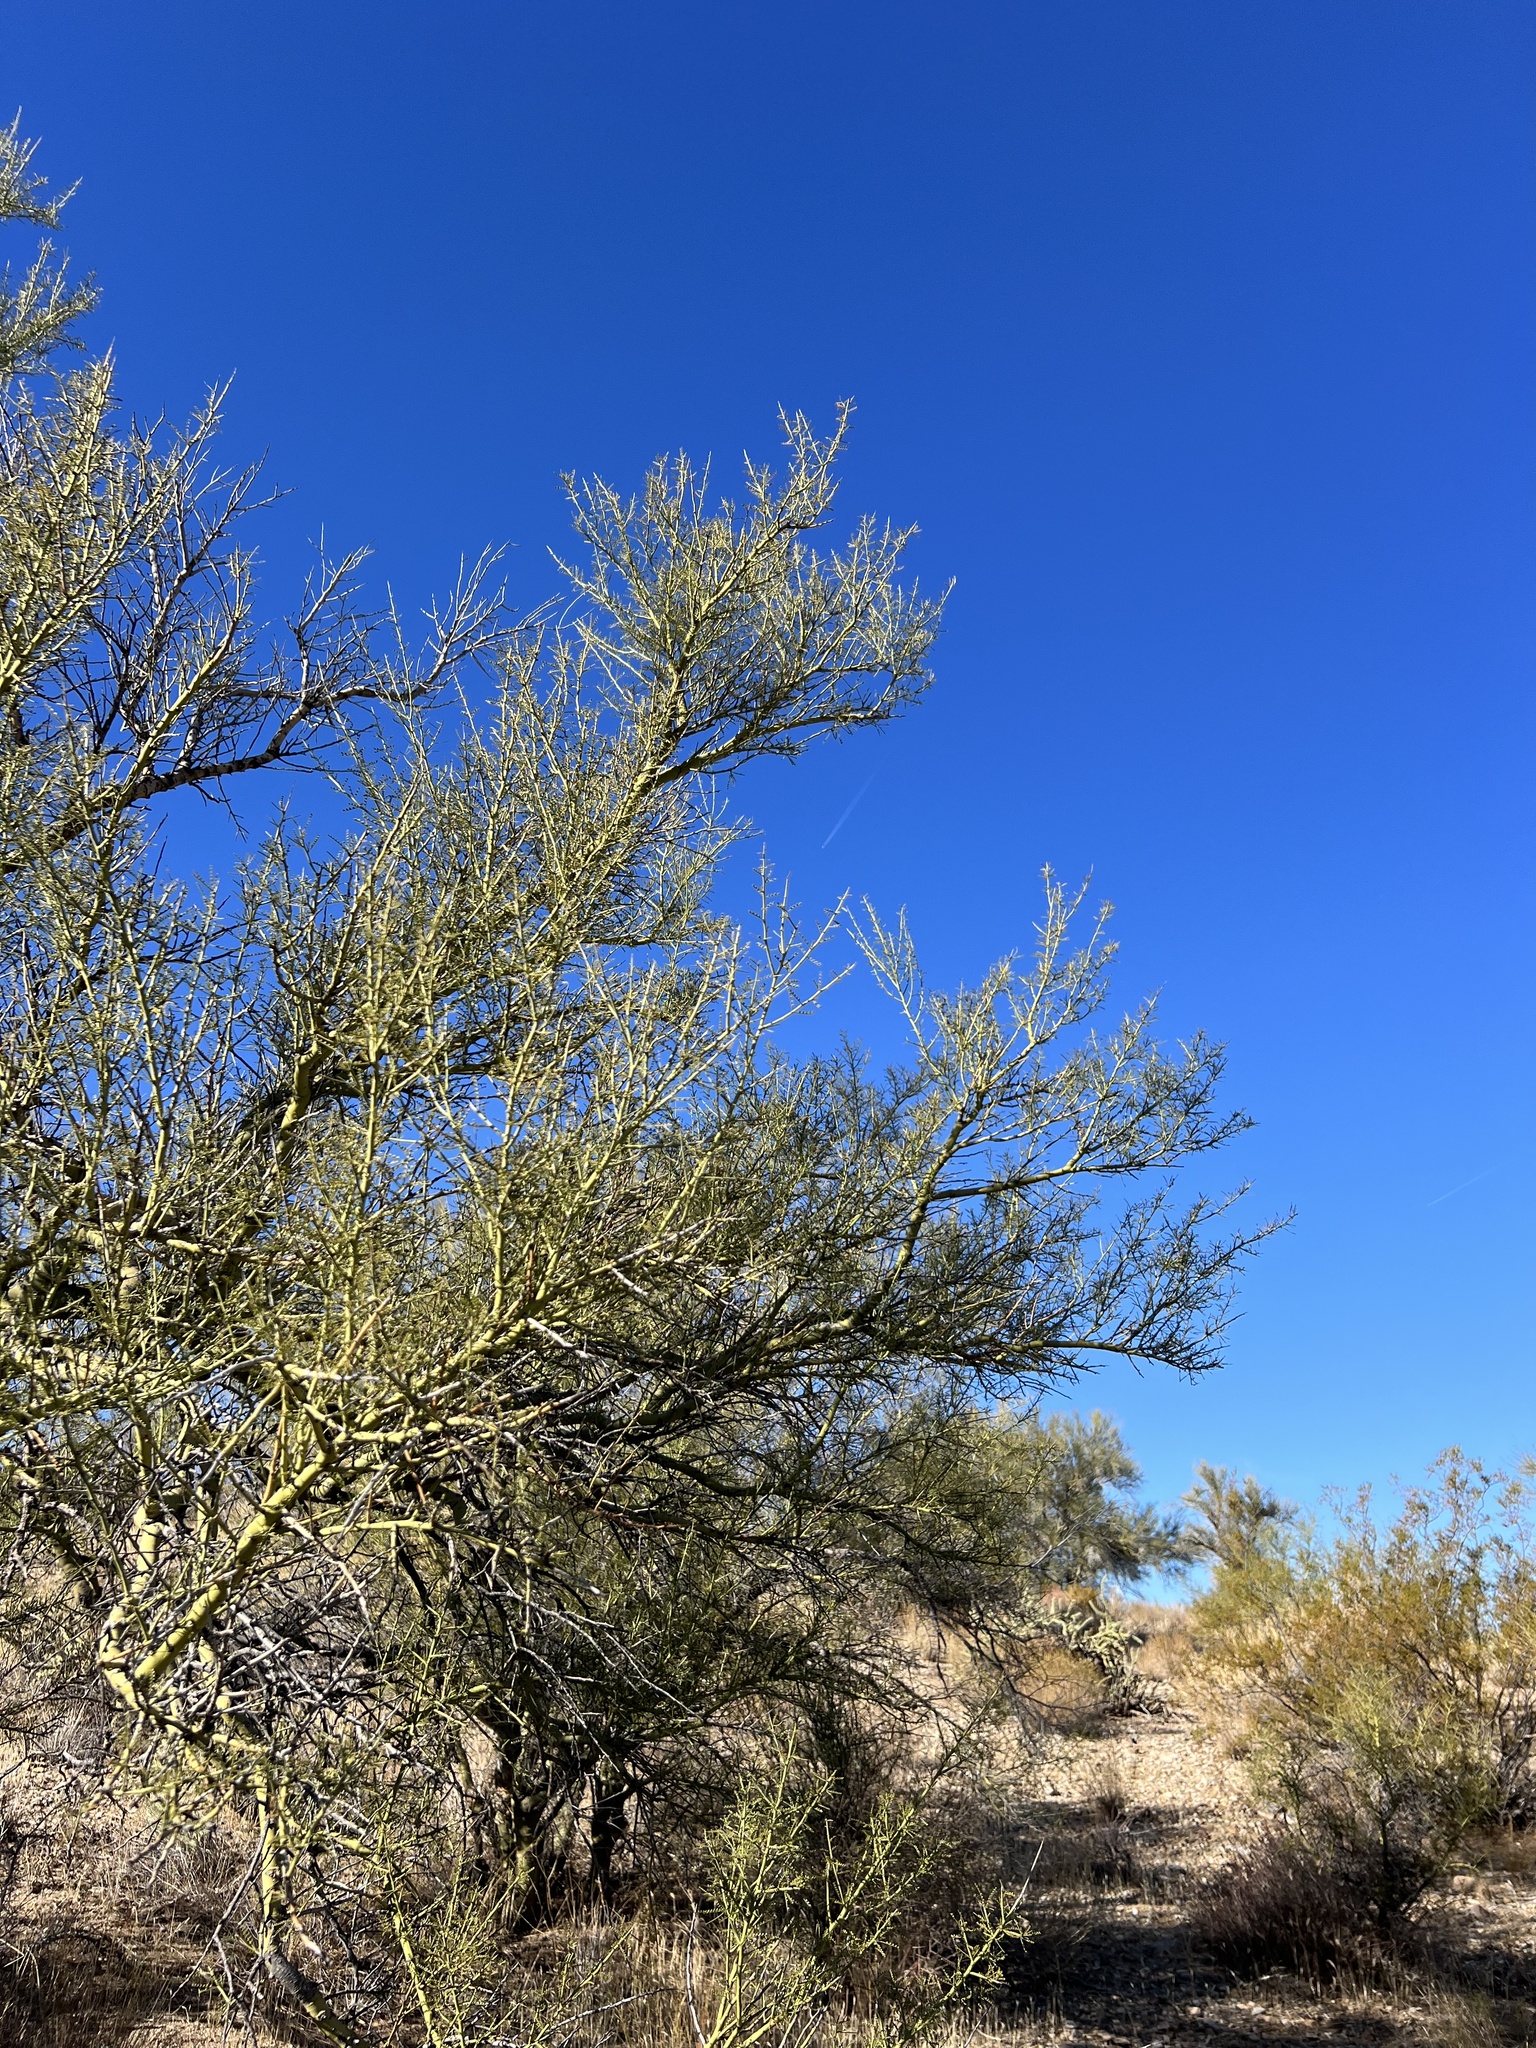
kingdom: Plantae
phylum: Tracheophyta
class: Magnoliopsida
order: Fabales
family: Fabaceae
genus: Parkinsonia
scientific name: Parkinsonia microphylla
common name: Yellow paloverde
